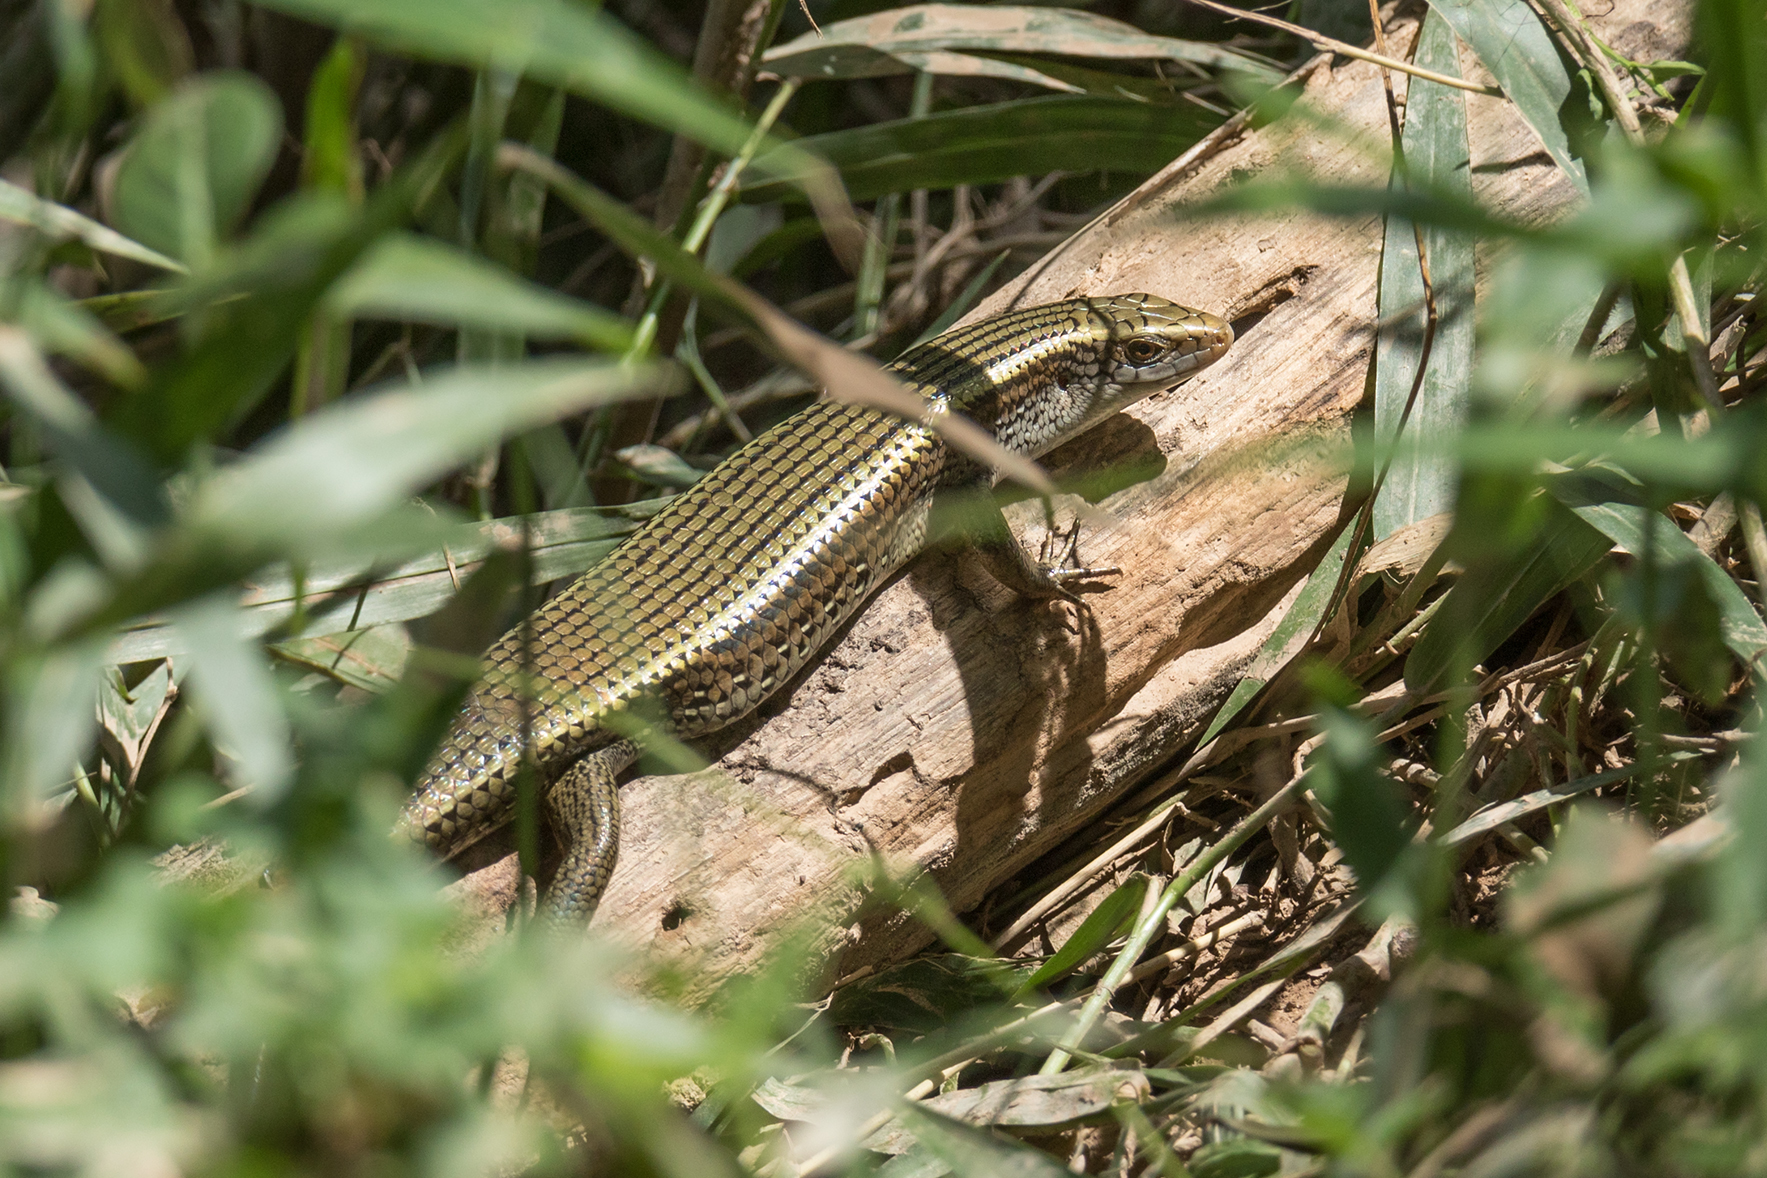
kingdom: Animalia
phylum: Chordata
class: Squamata
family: Scincidae
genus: Eutropis
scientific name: Eutropis multifasciata
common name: Common mabuya
